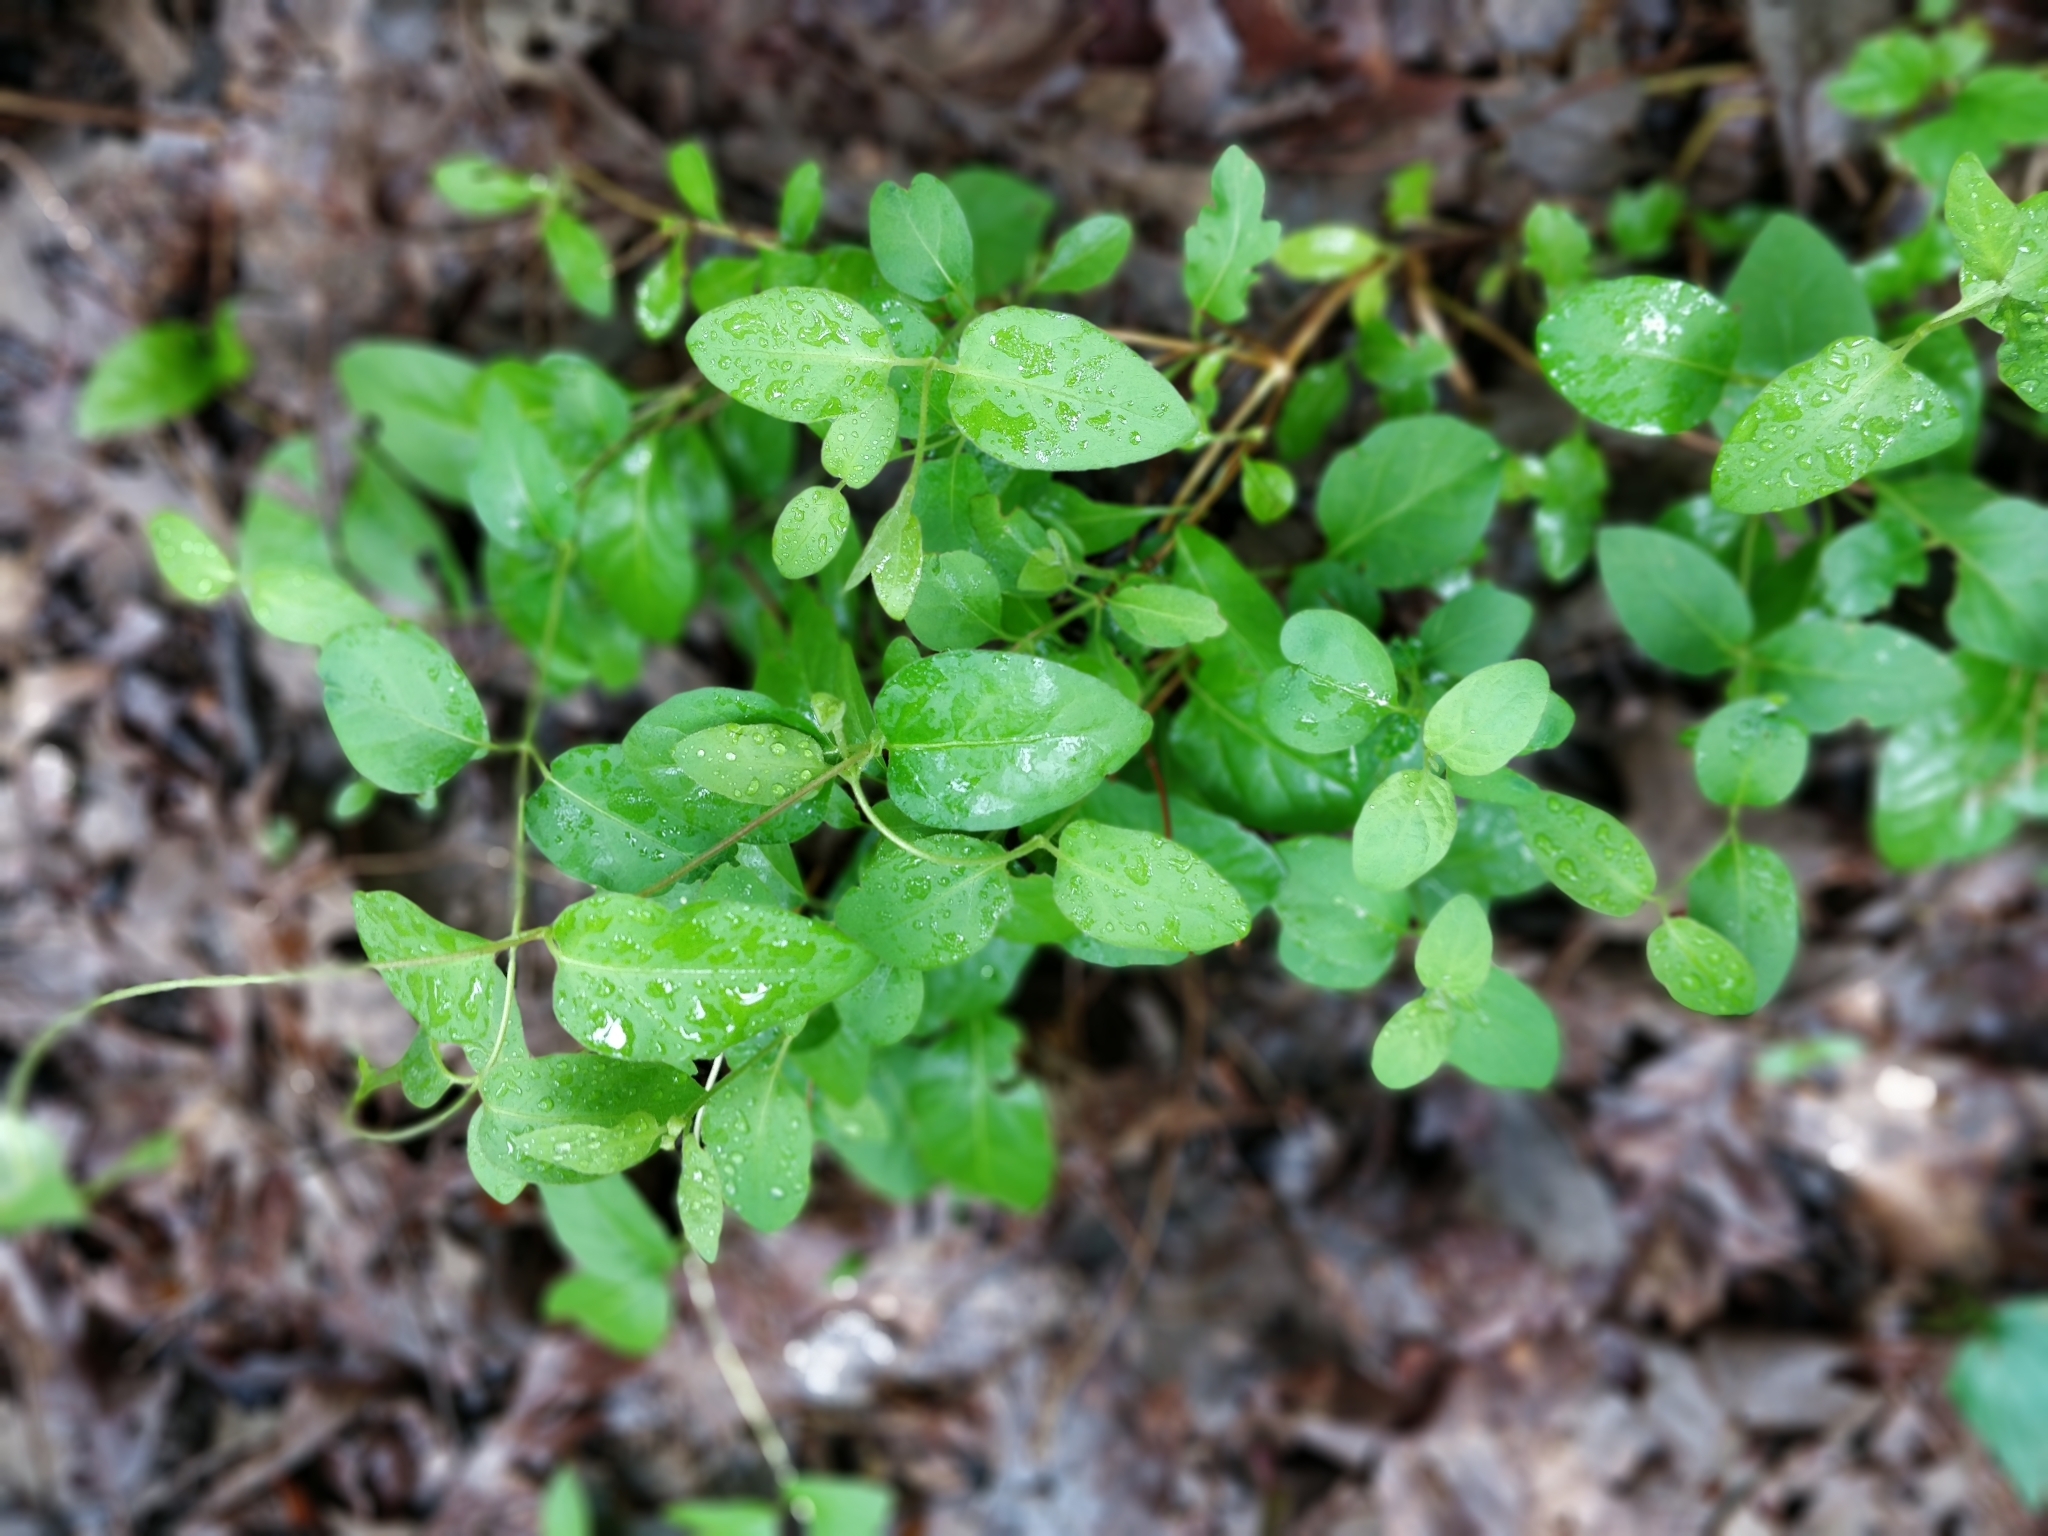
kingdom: Plantae
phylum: Tracheophyta
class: Magnoliopsida
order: Dipsacales
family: Caprifoliaceae
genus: Lonicera
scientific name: Lonicera japonica
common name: Japanese honeysuckle
